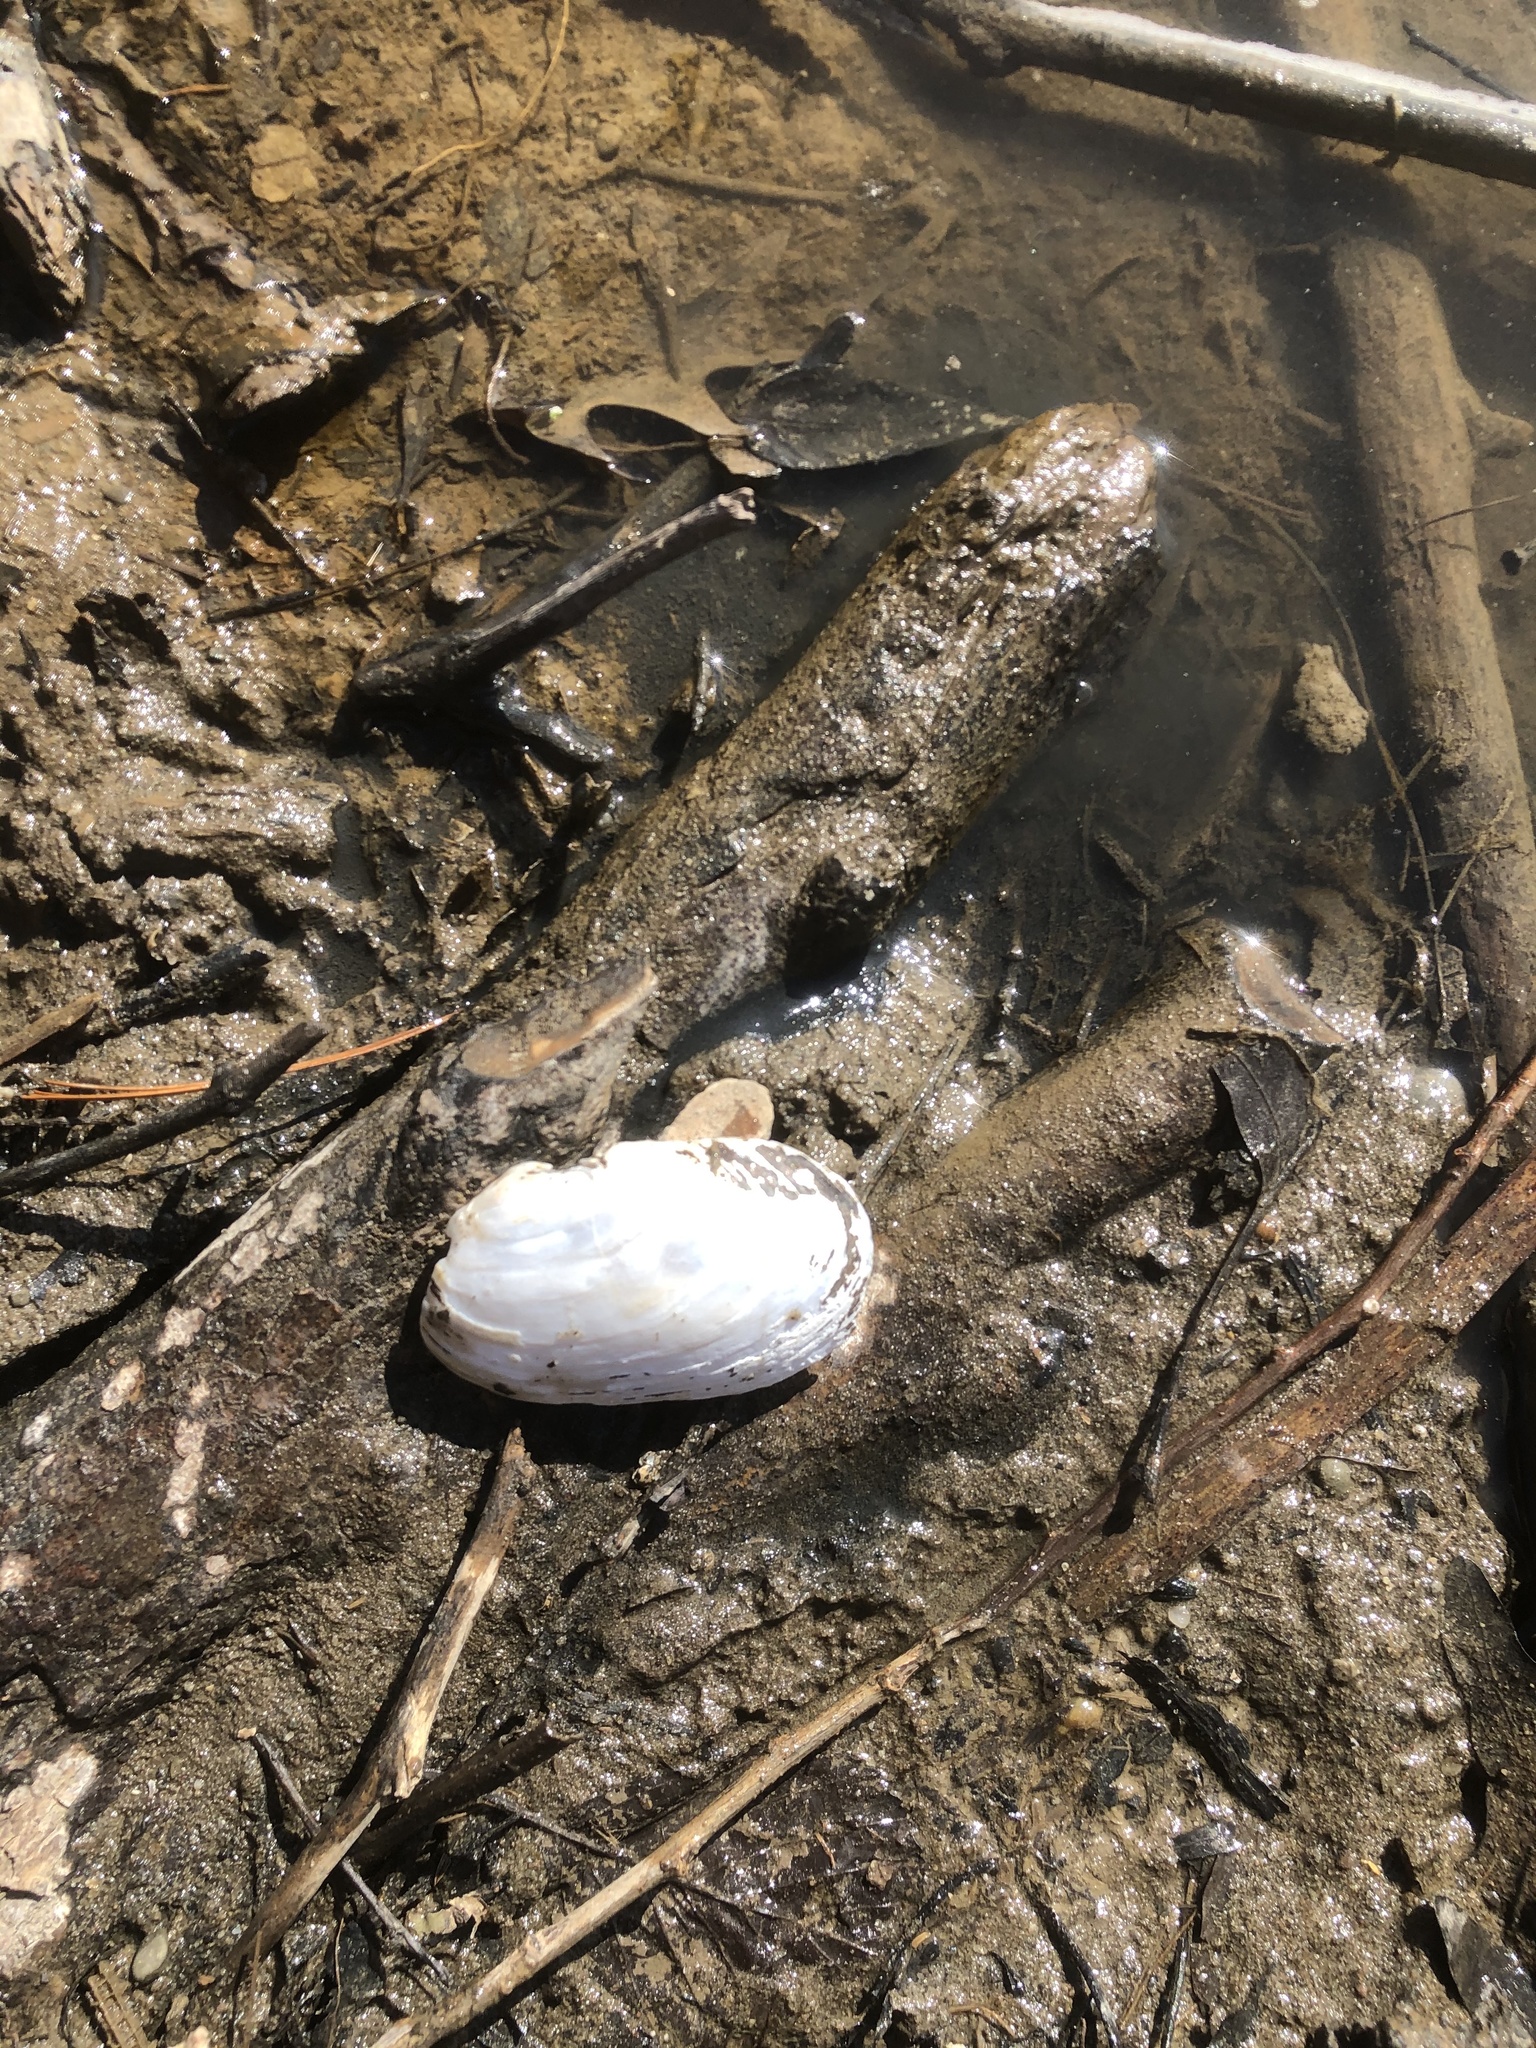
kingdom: Animalia
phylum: Mollusca
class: Bivalvia
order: Unionida
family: Unionidae
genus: Lampsilis
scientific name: Lampsilis siliquoidea
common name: Fatmucket
